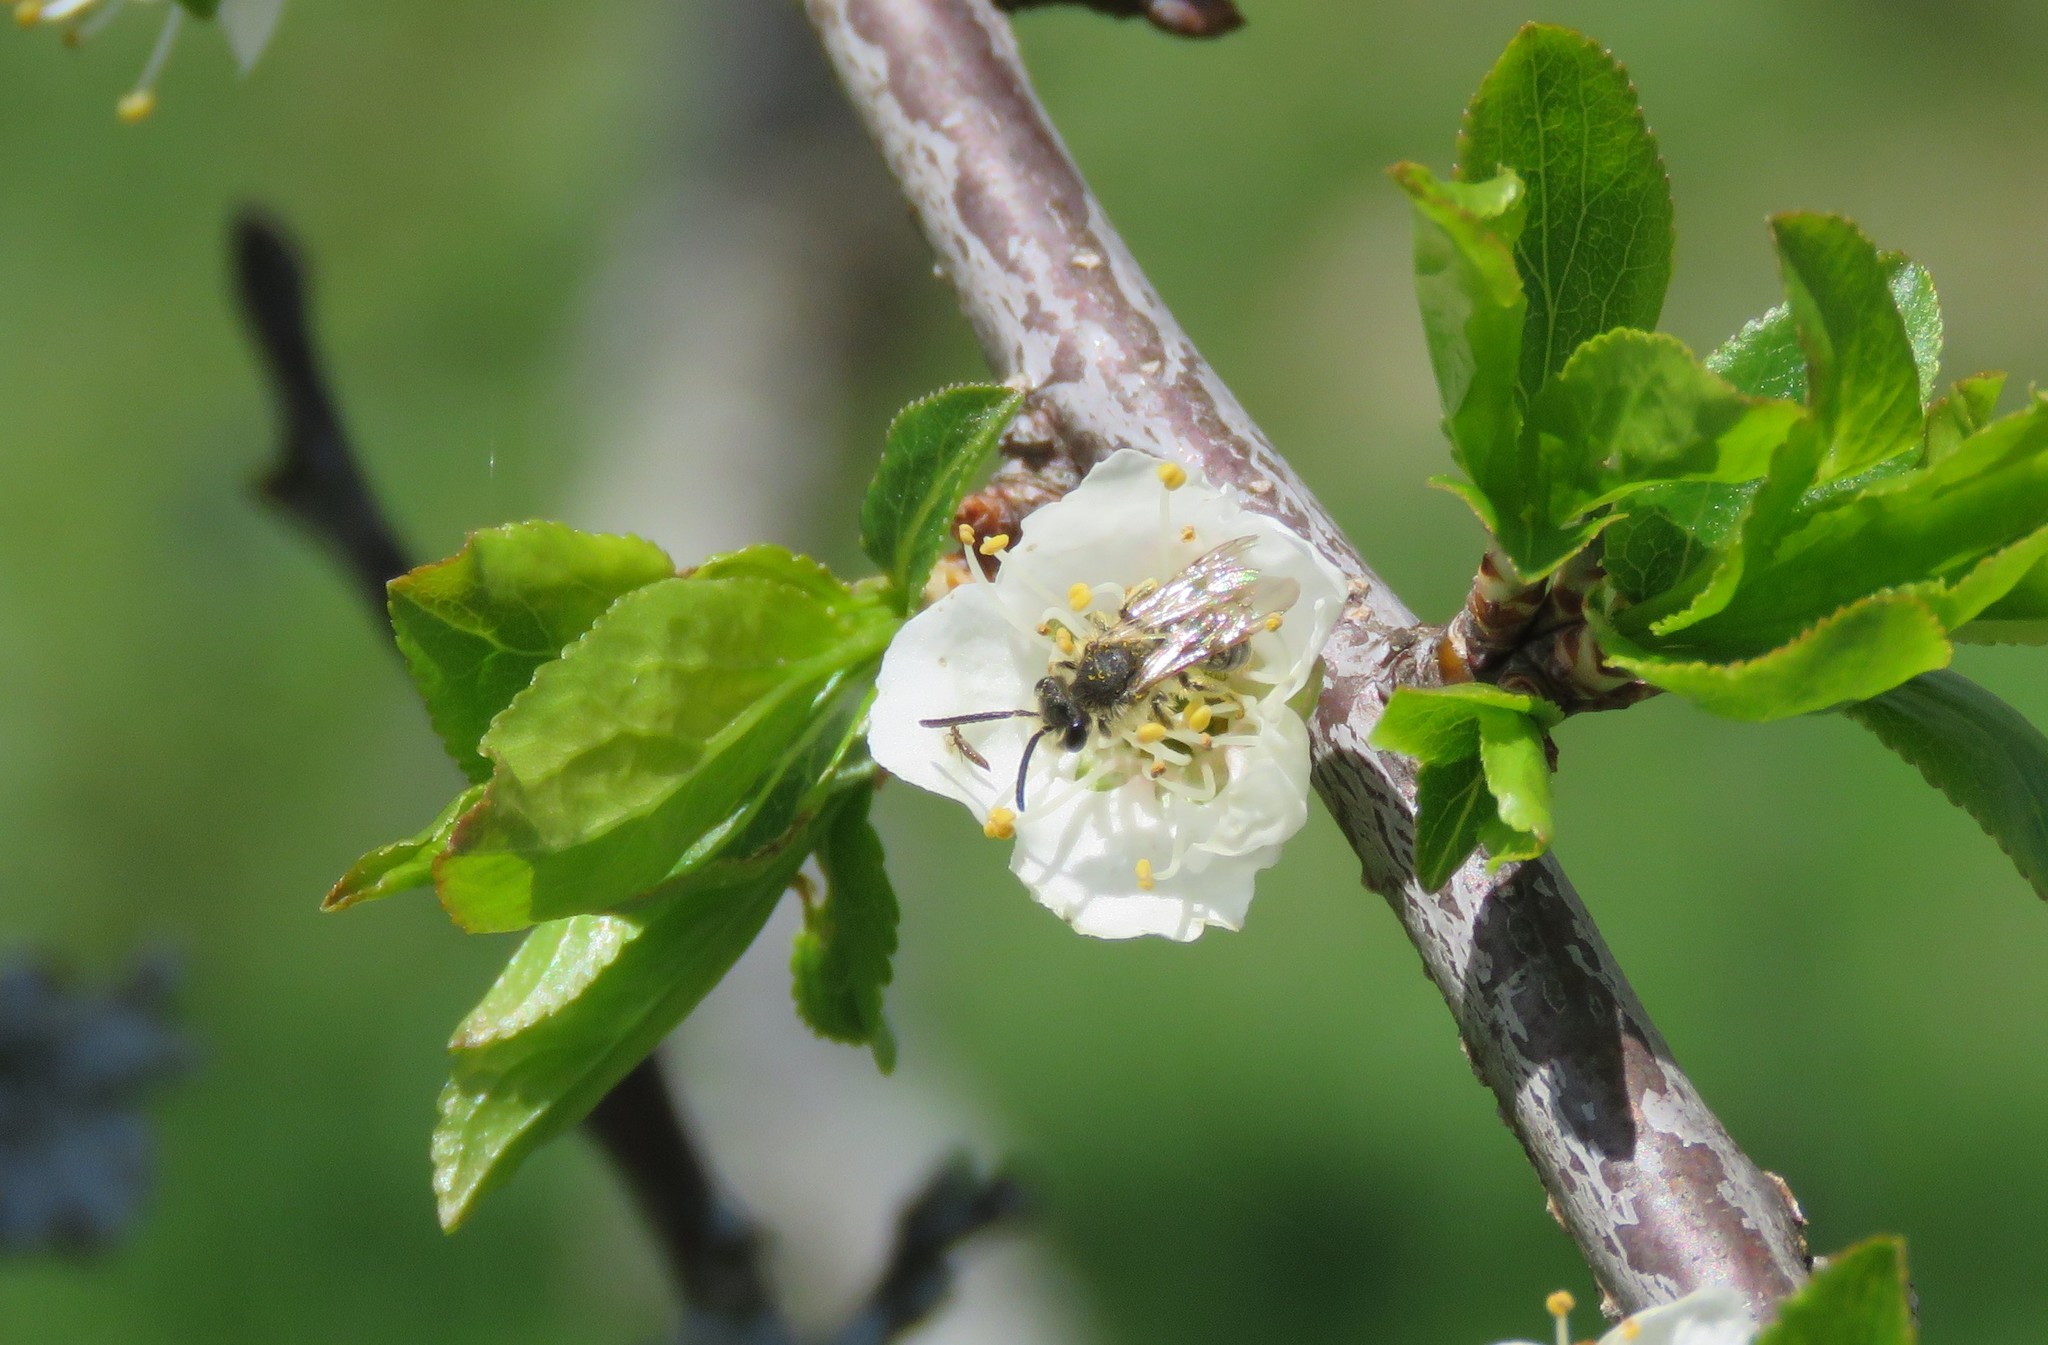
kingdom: Animalia
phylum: Arthropoda
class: Insecta
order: Hymenoptera
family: Andrenidae
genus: Andrena
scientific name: Andrena
